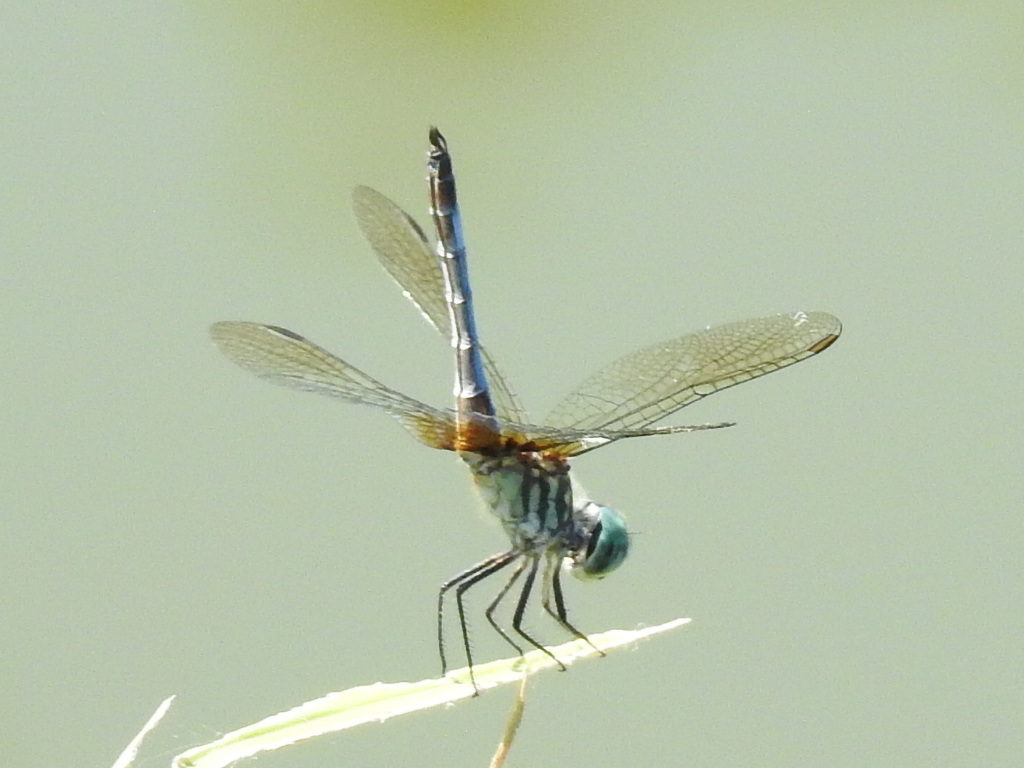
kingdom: Animalia
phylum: Arthropoda
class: Insecta
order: Odonata
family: Libellulidae
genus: Pachydiplax
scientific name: Pachydiplax longipennis
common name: Blue dasher
